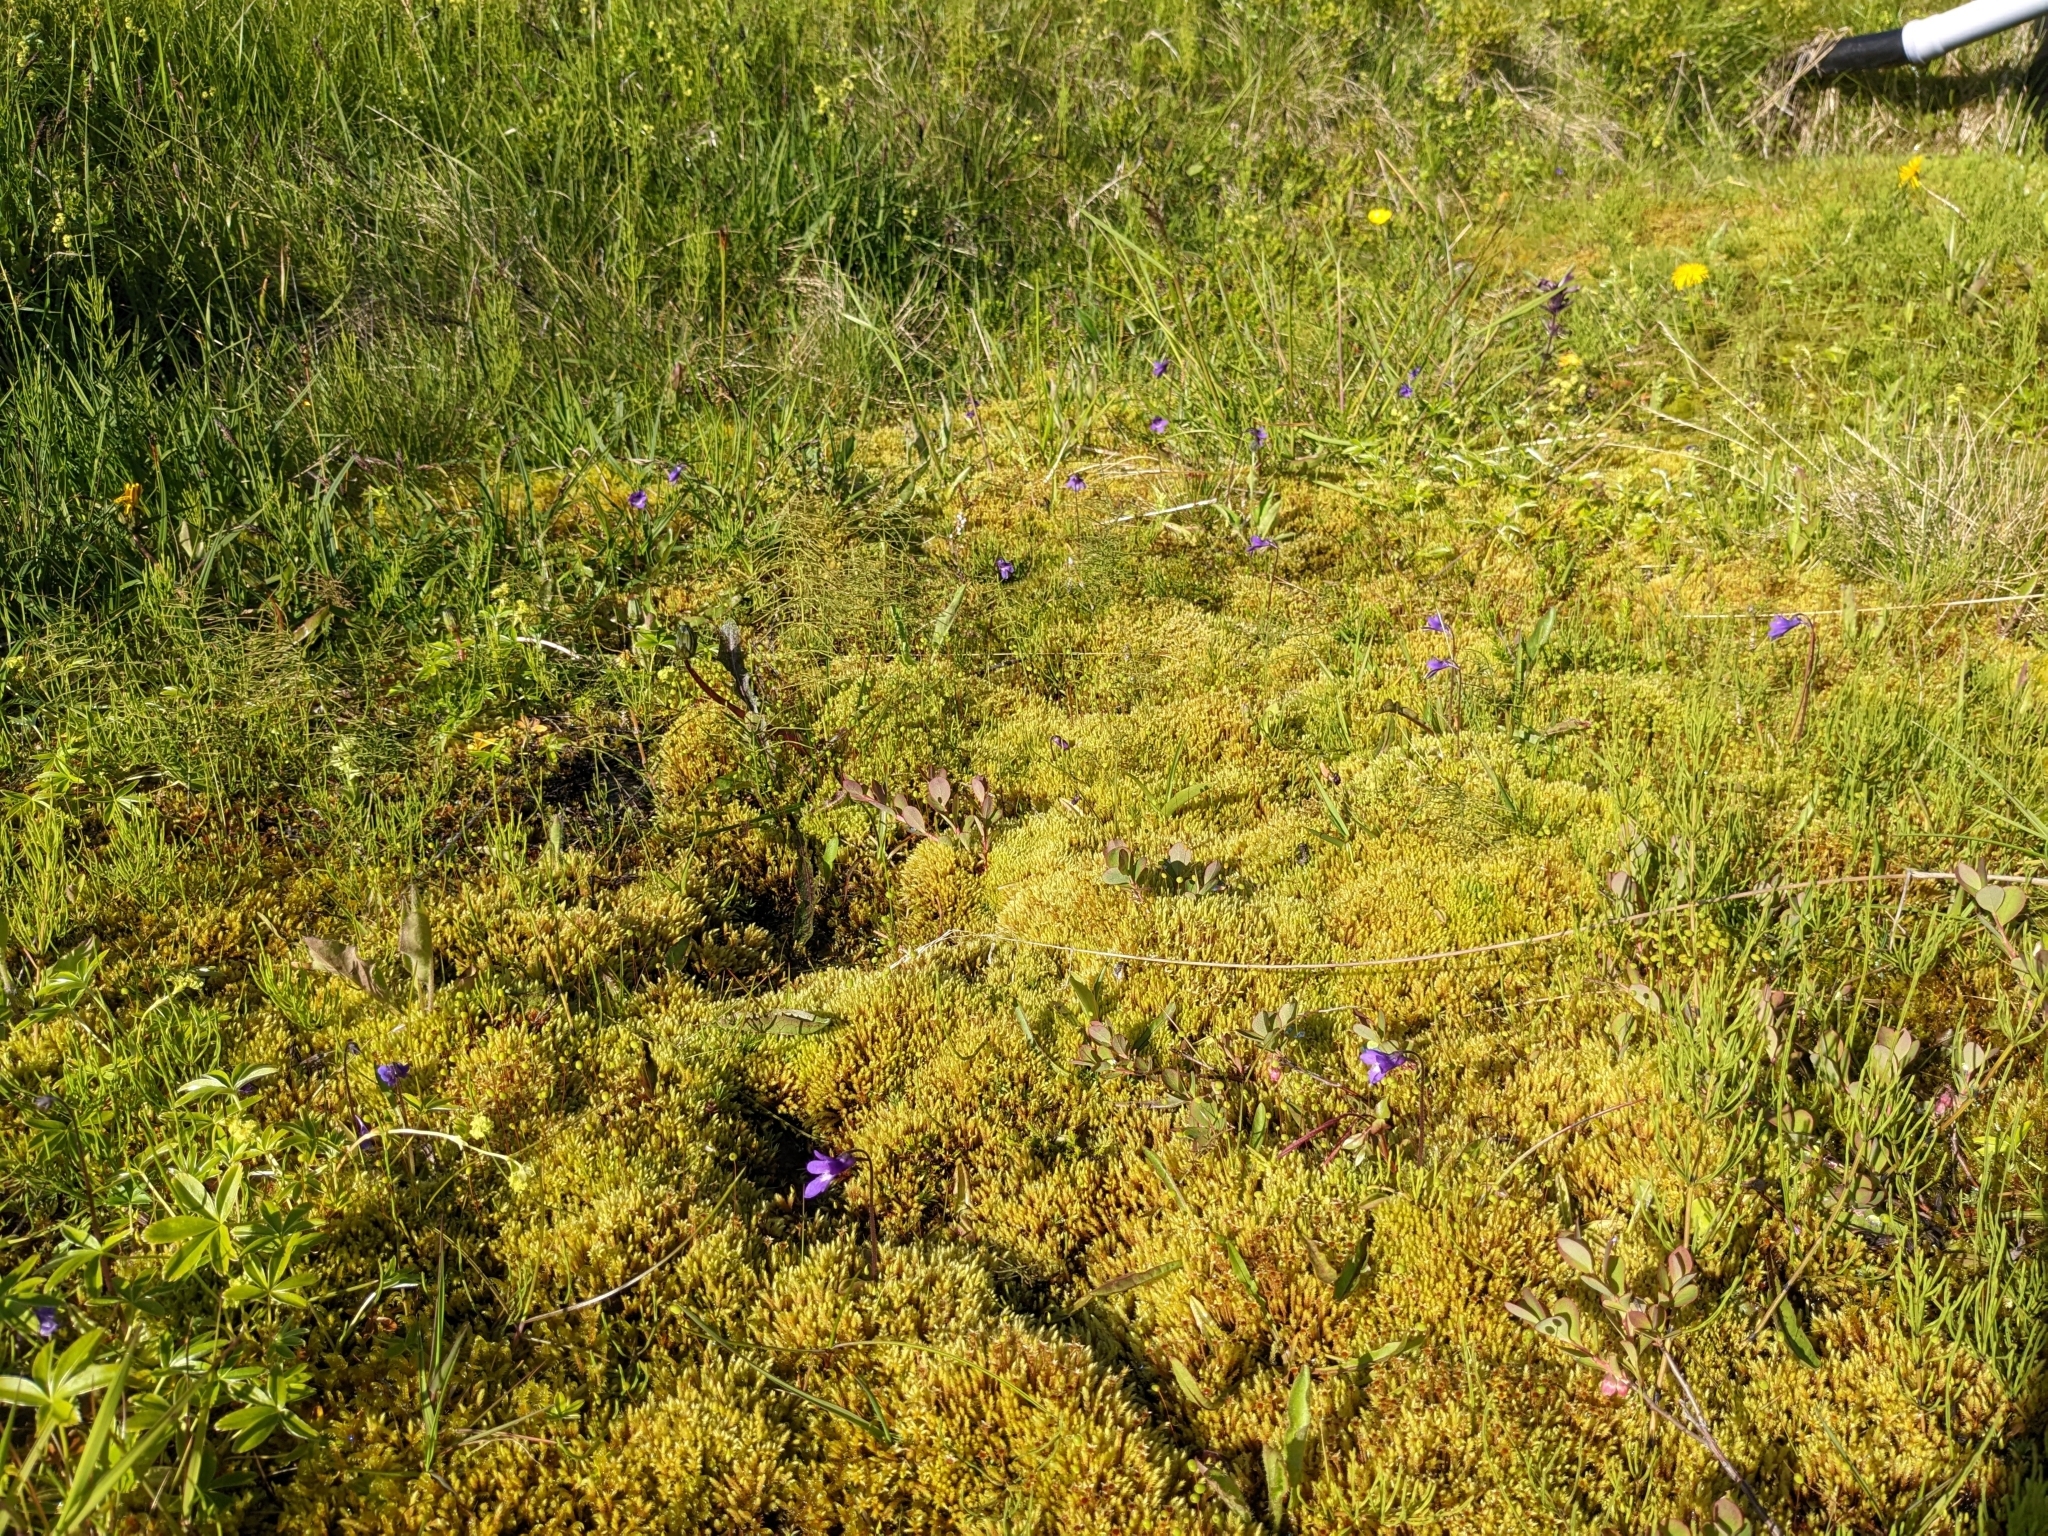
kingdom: Plantae
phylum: Tracheophyta
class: Magnoliopsida
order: Lamiales
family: Lentibulariaceae
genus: Pinguicula
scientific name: Pinguicula vulgaris
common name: Common butterwort
